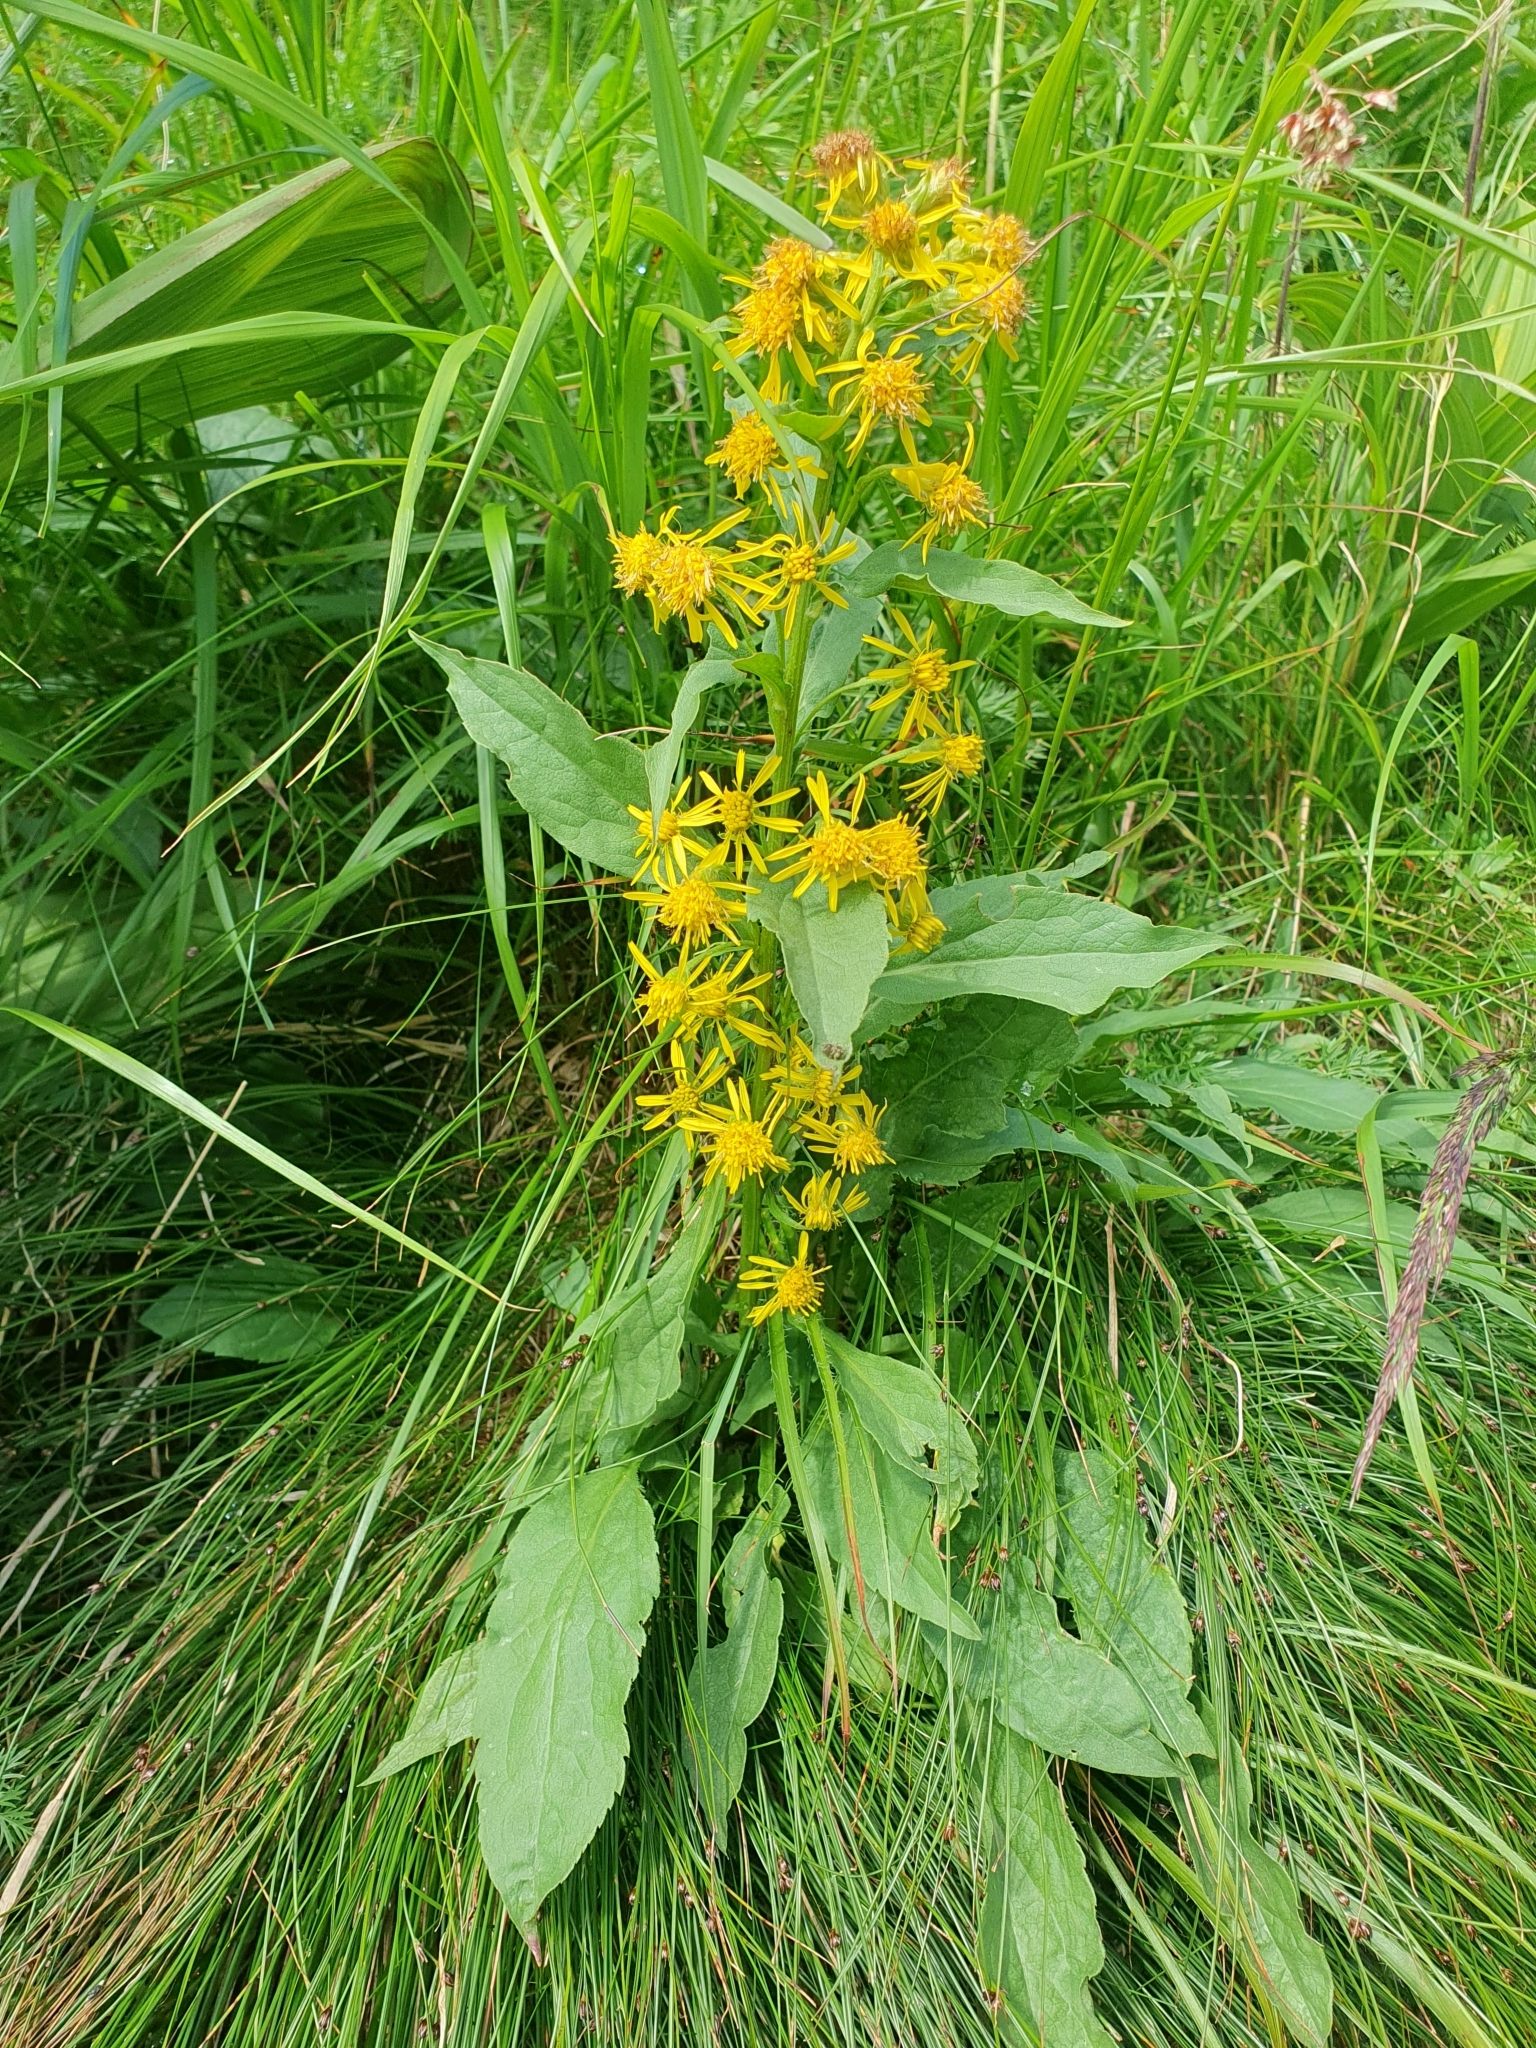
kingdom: Plantae
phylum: Tracheophyta
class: Magnoliopsida
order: Asterales
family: Asteraceae
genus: Solidago
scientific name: Solidago virgaurea
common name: Goldenrod
